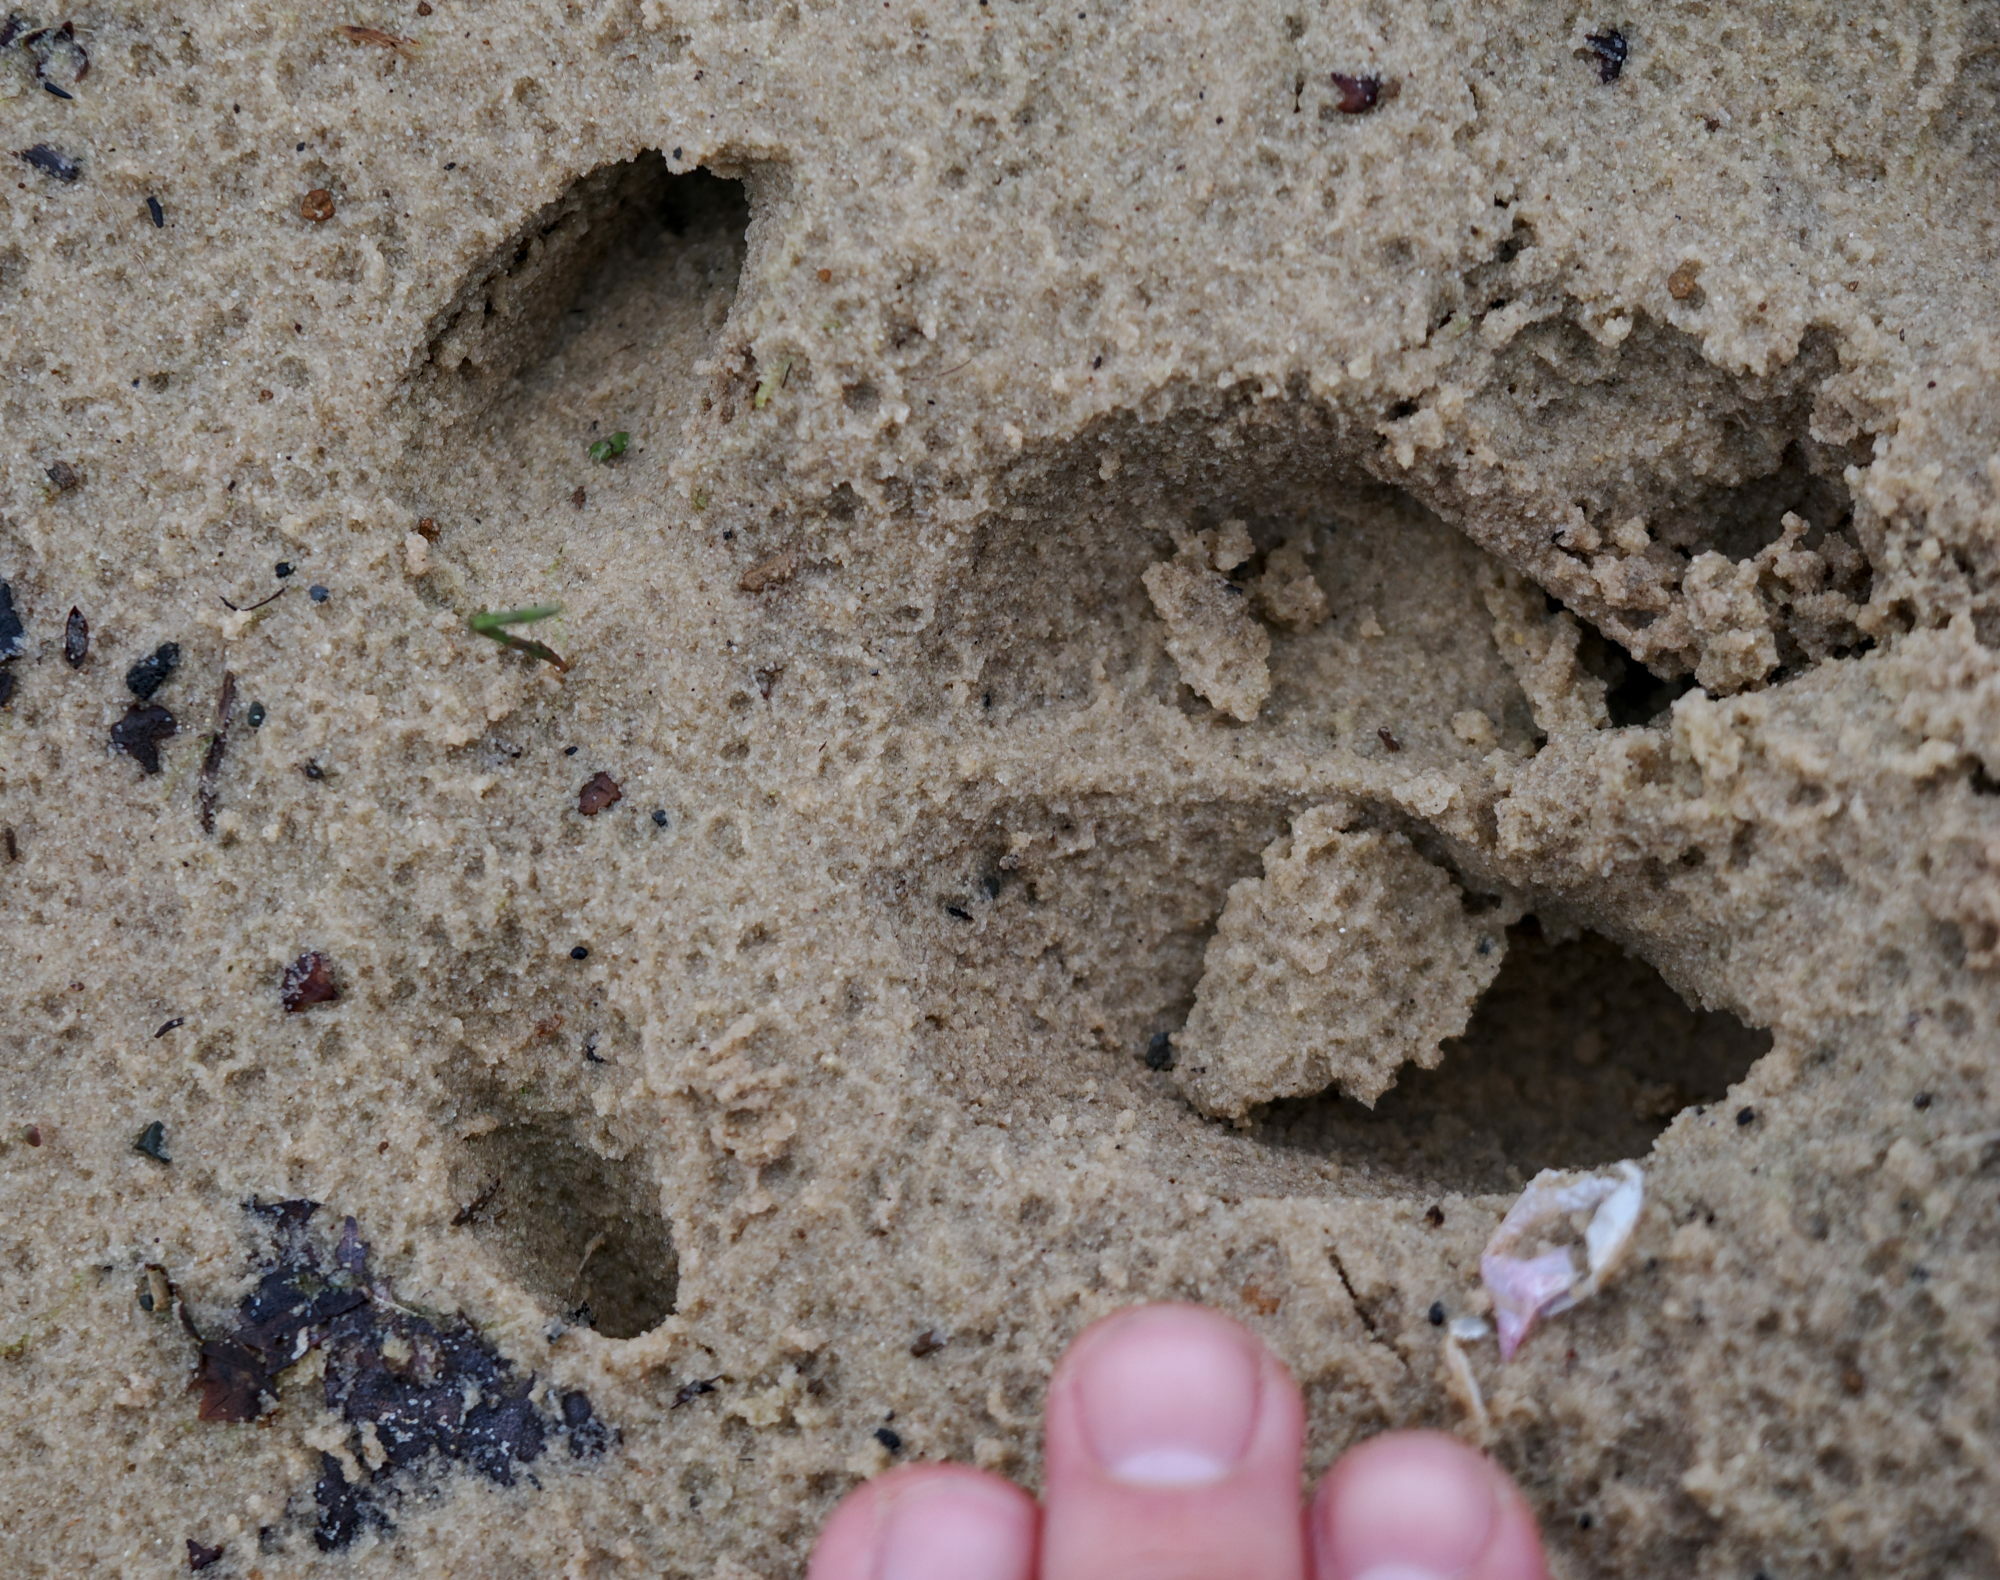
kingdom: Animalia
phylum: Chordata
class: Mammalia
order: Artiodactyla
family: Suidae
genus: Sus
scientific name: Sus scrofa
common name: Wild boar
